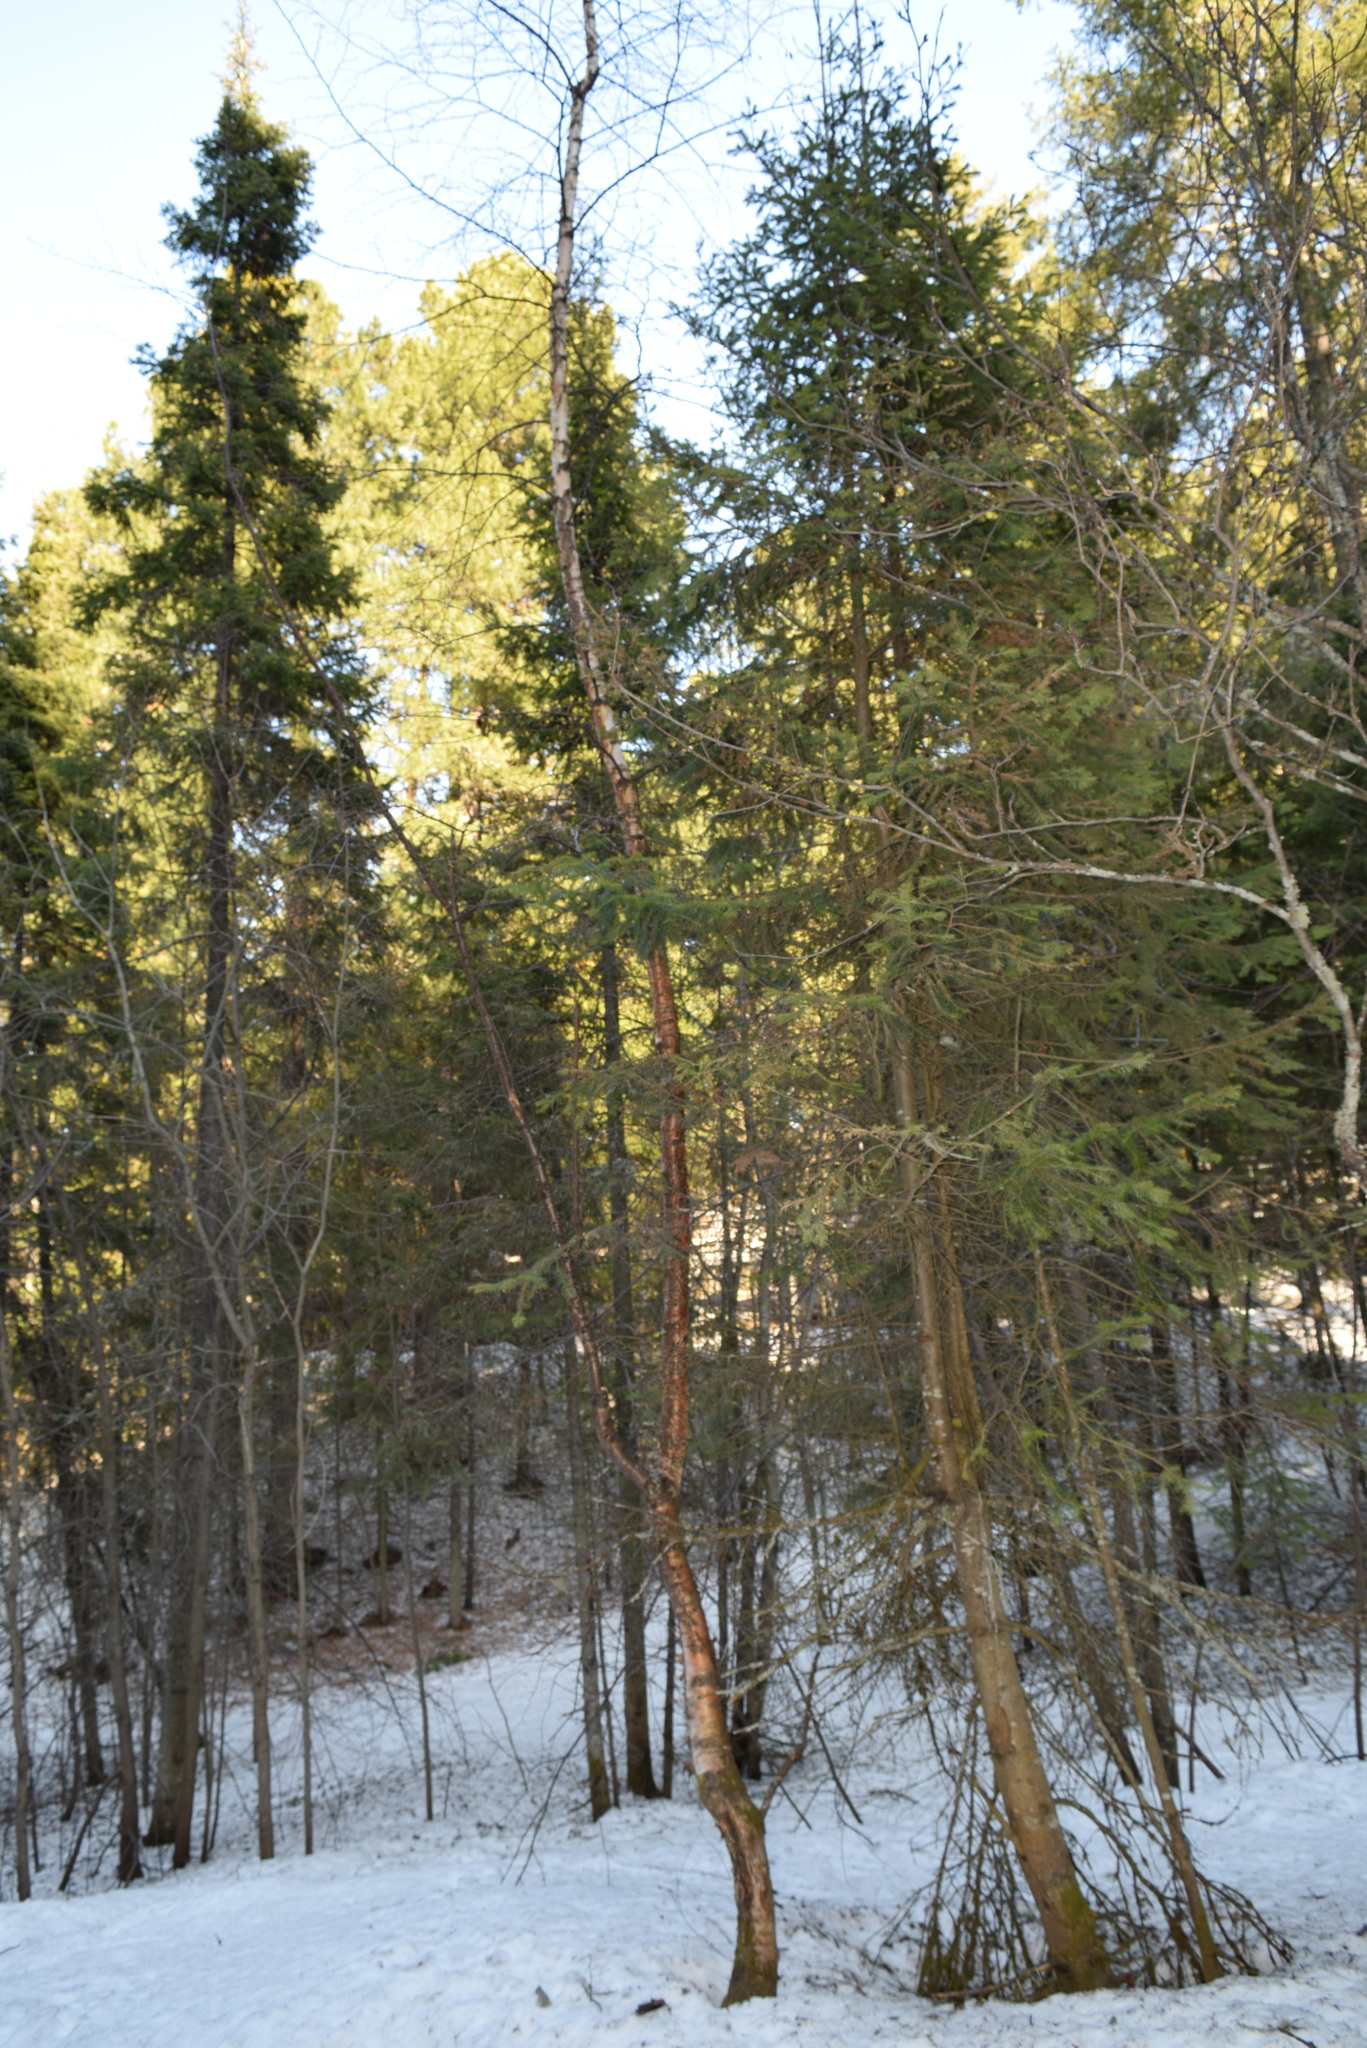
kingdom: Plantae
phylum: Tracheophyta
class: Magnoliopsida
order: Fagales
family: Betulaceae
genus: Betula
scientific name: Betula pubescens
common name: Downy birch
